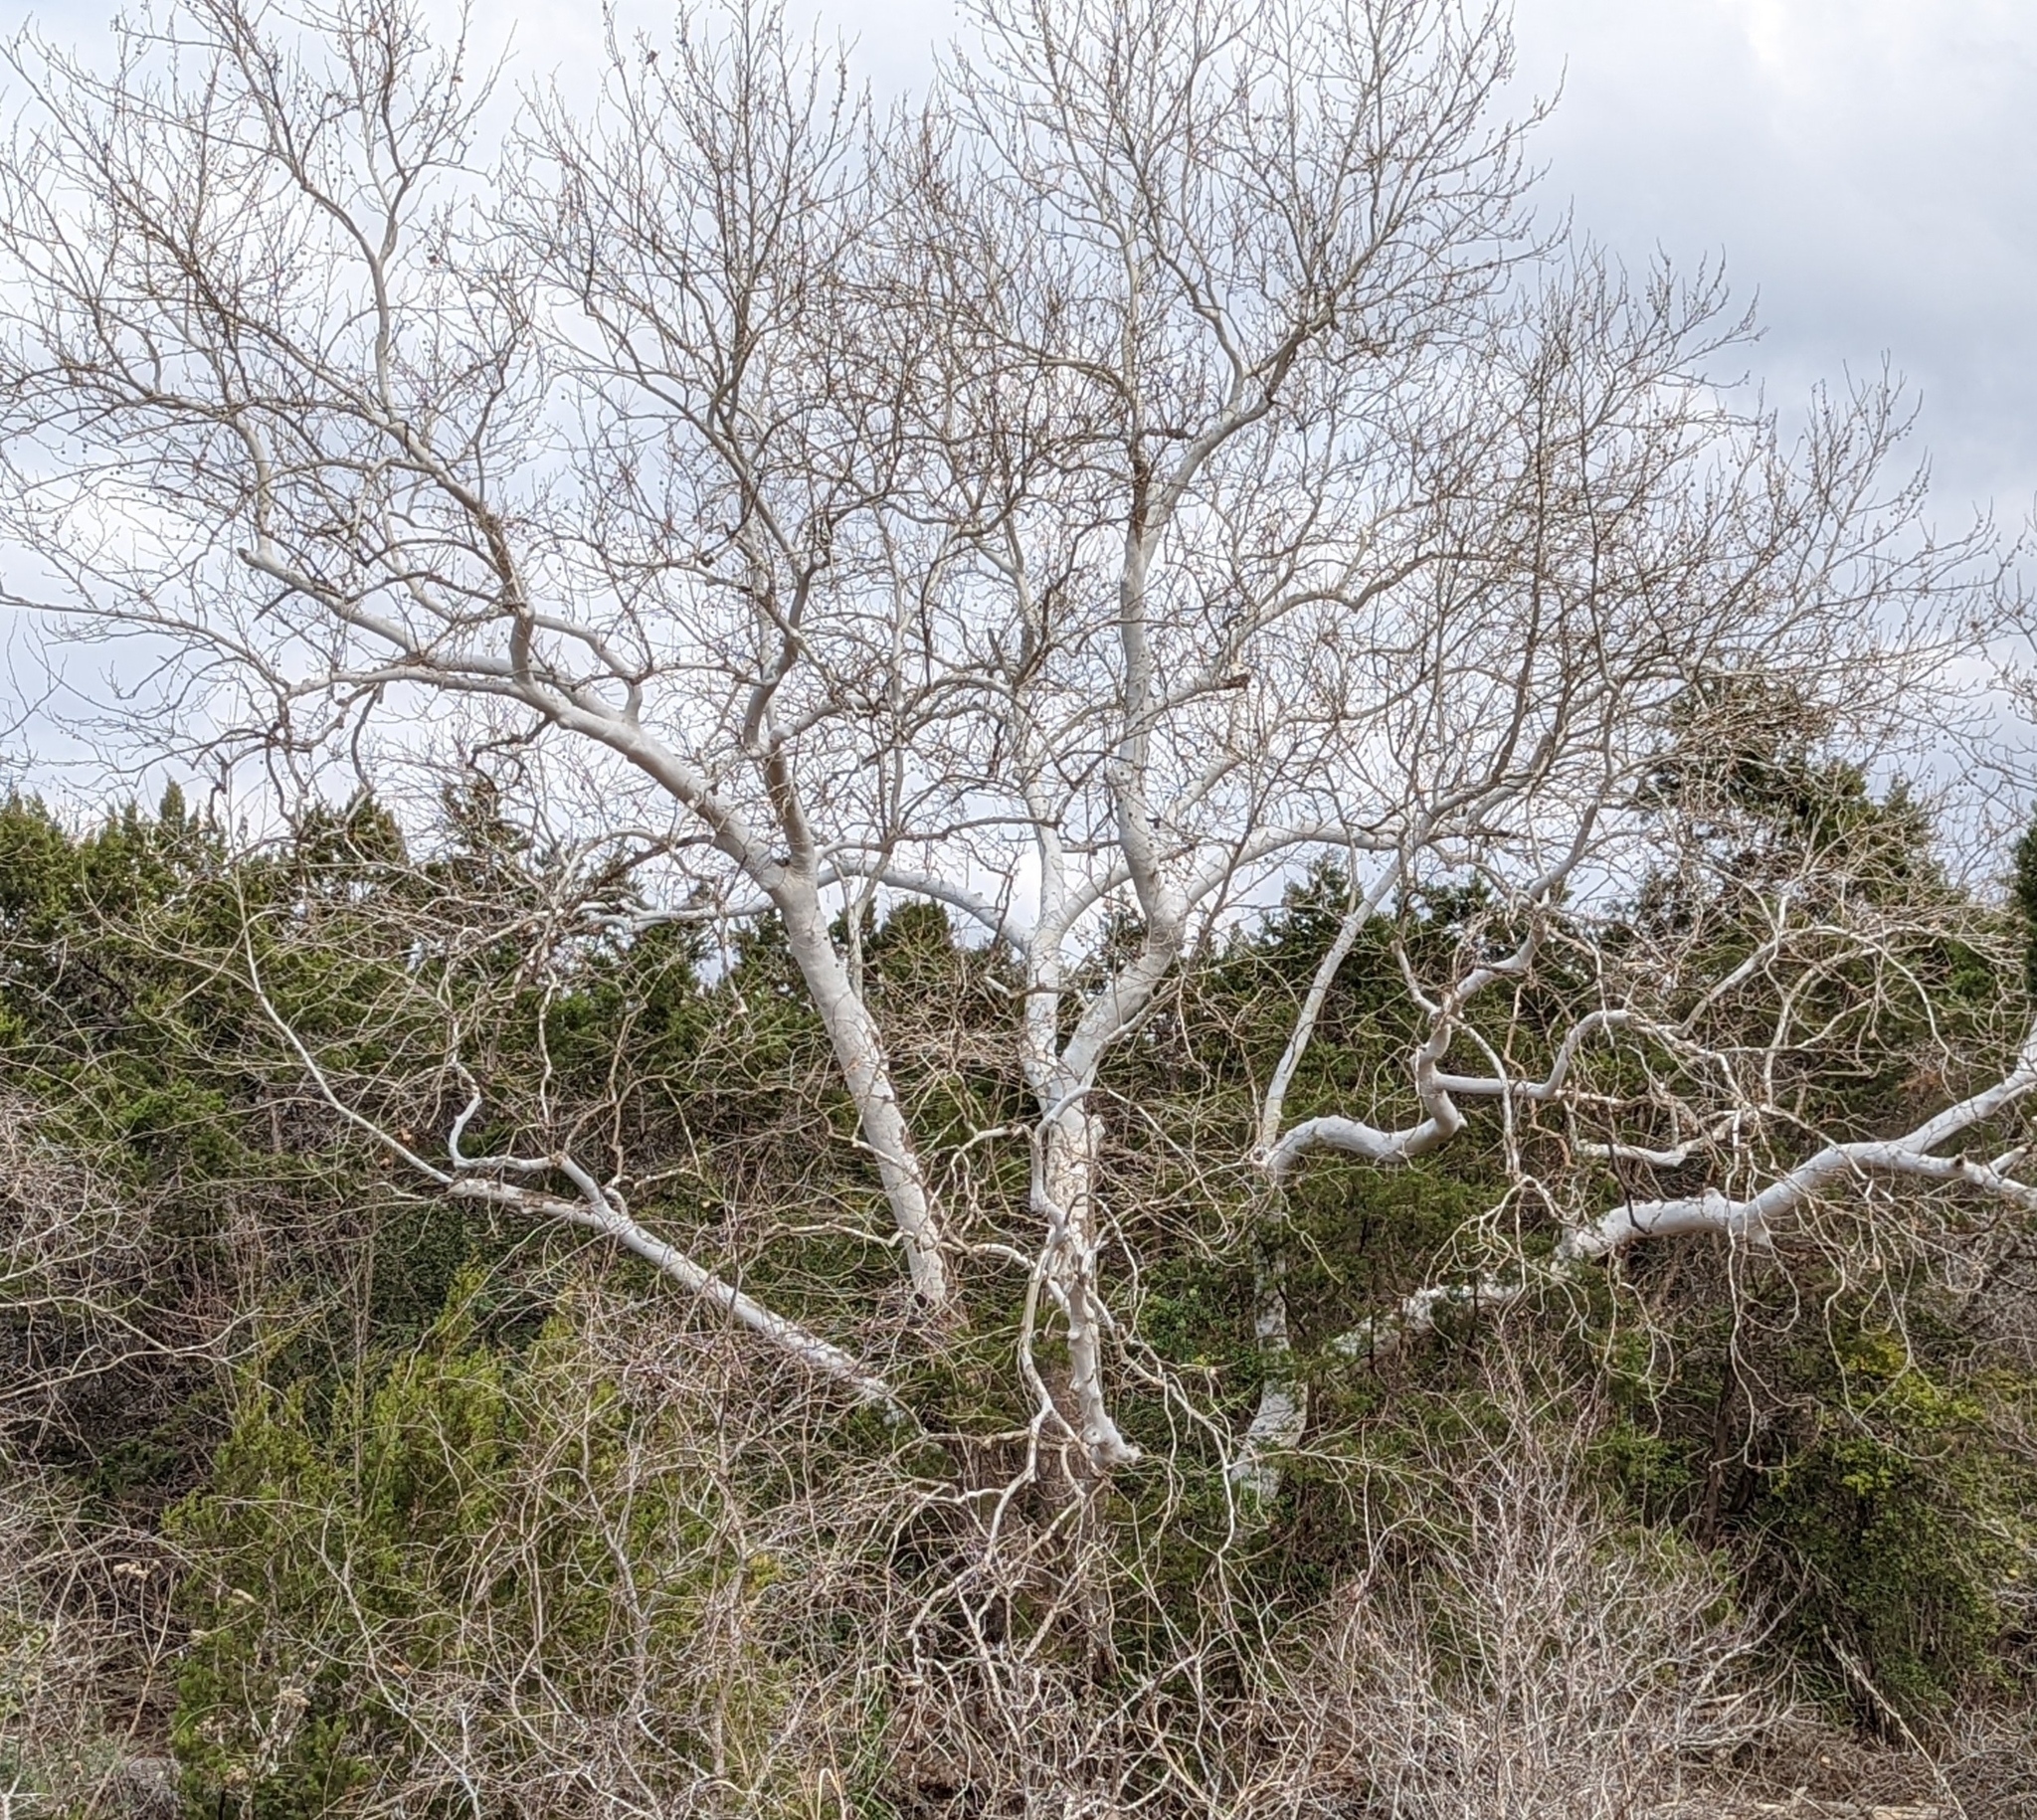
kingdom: Plantae
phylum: Tracheophyta
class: Magnoliopsida
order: Proteales
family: Platanaceae
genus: Platanus
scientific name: Platanus occidentalis
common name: American sycamore
